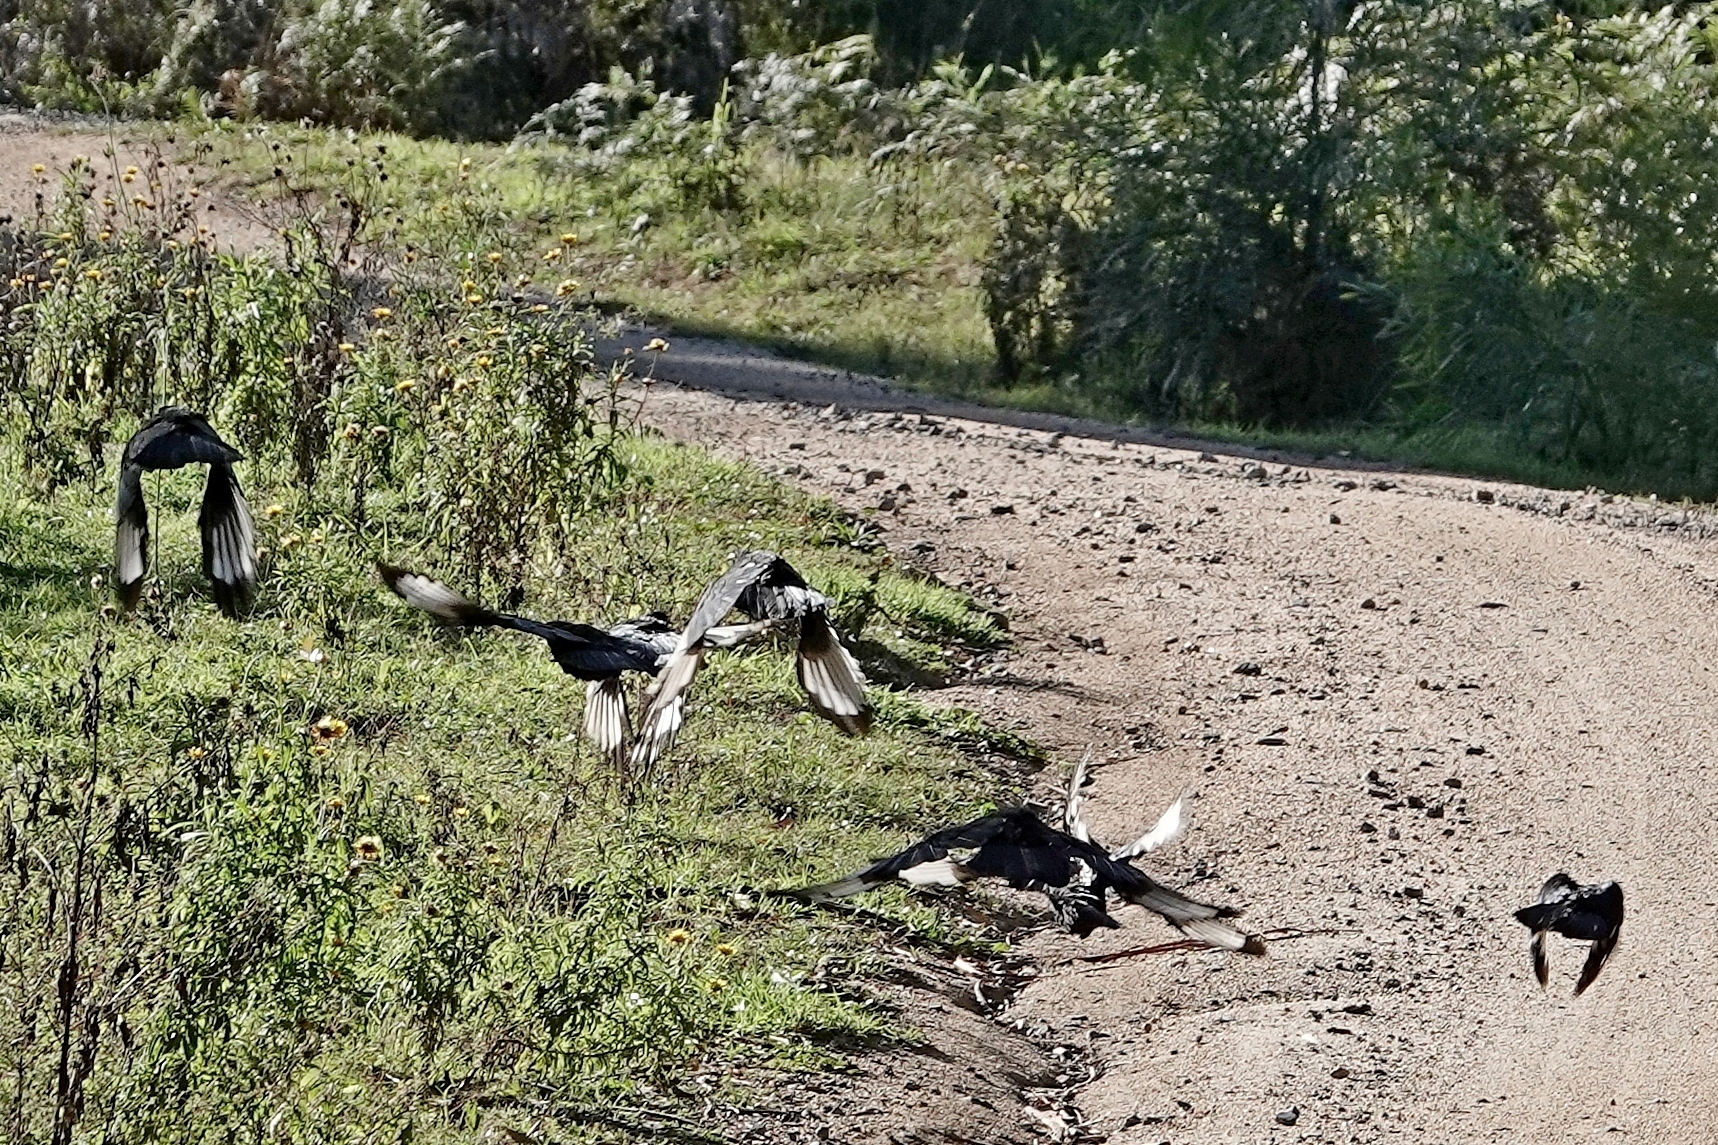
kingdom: Animalia
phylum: Chordata
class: Aves
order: Passeriformes
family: Corcoracidae
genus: Corcorax
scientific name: Corcorax melanoramphos
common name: White-winged chough
